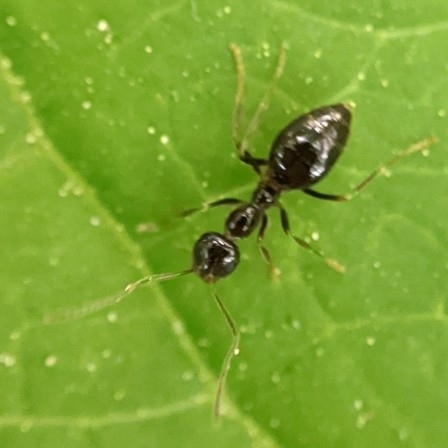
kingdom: Animalia
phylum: Arthropoda
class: Insecta
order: Hymenoptera
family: Formicidae
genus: Prenolepis
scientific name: Prenolepis imparis
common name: Small honey ant
